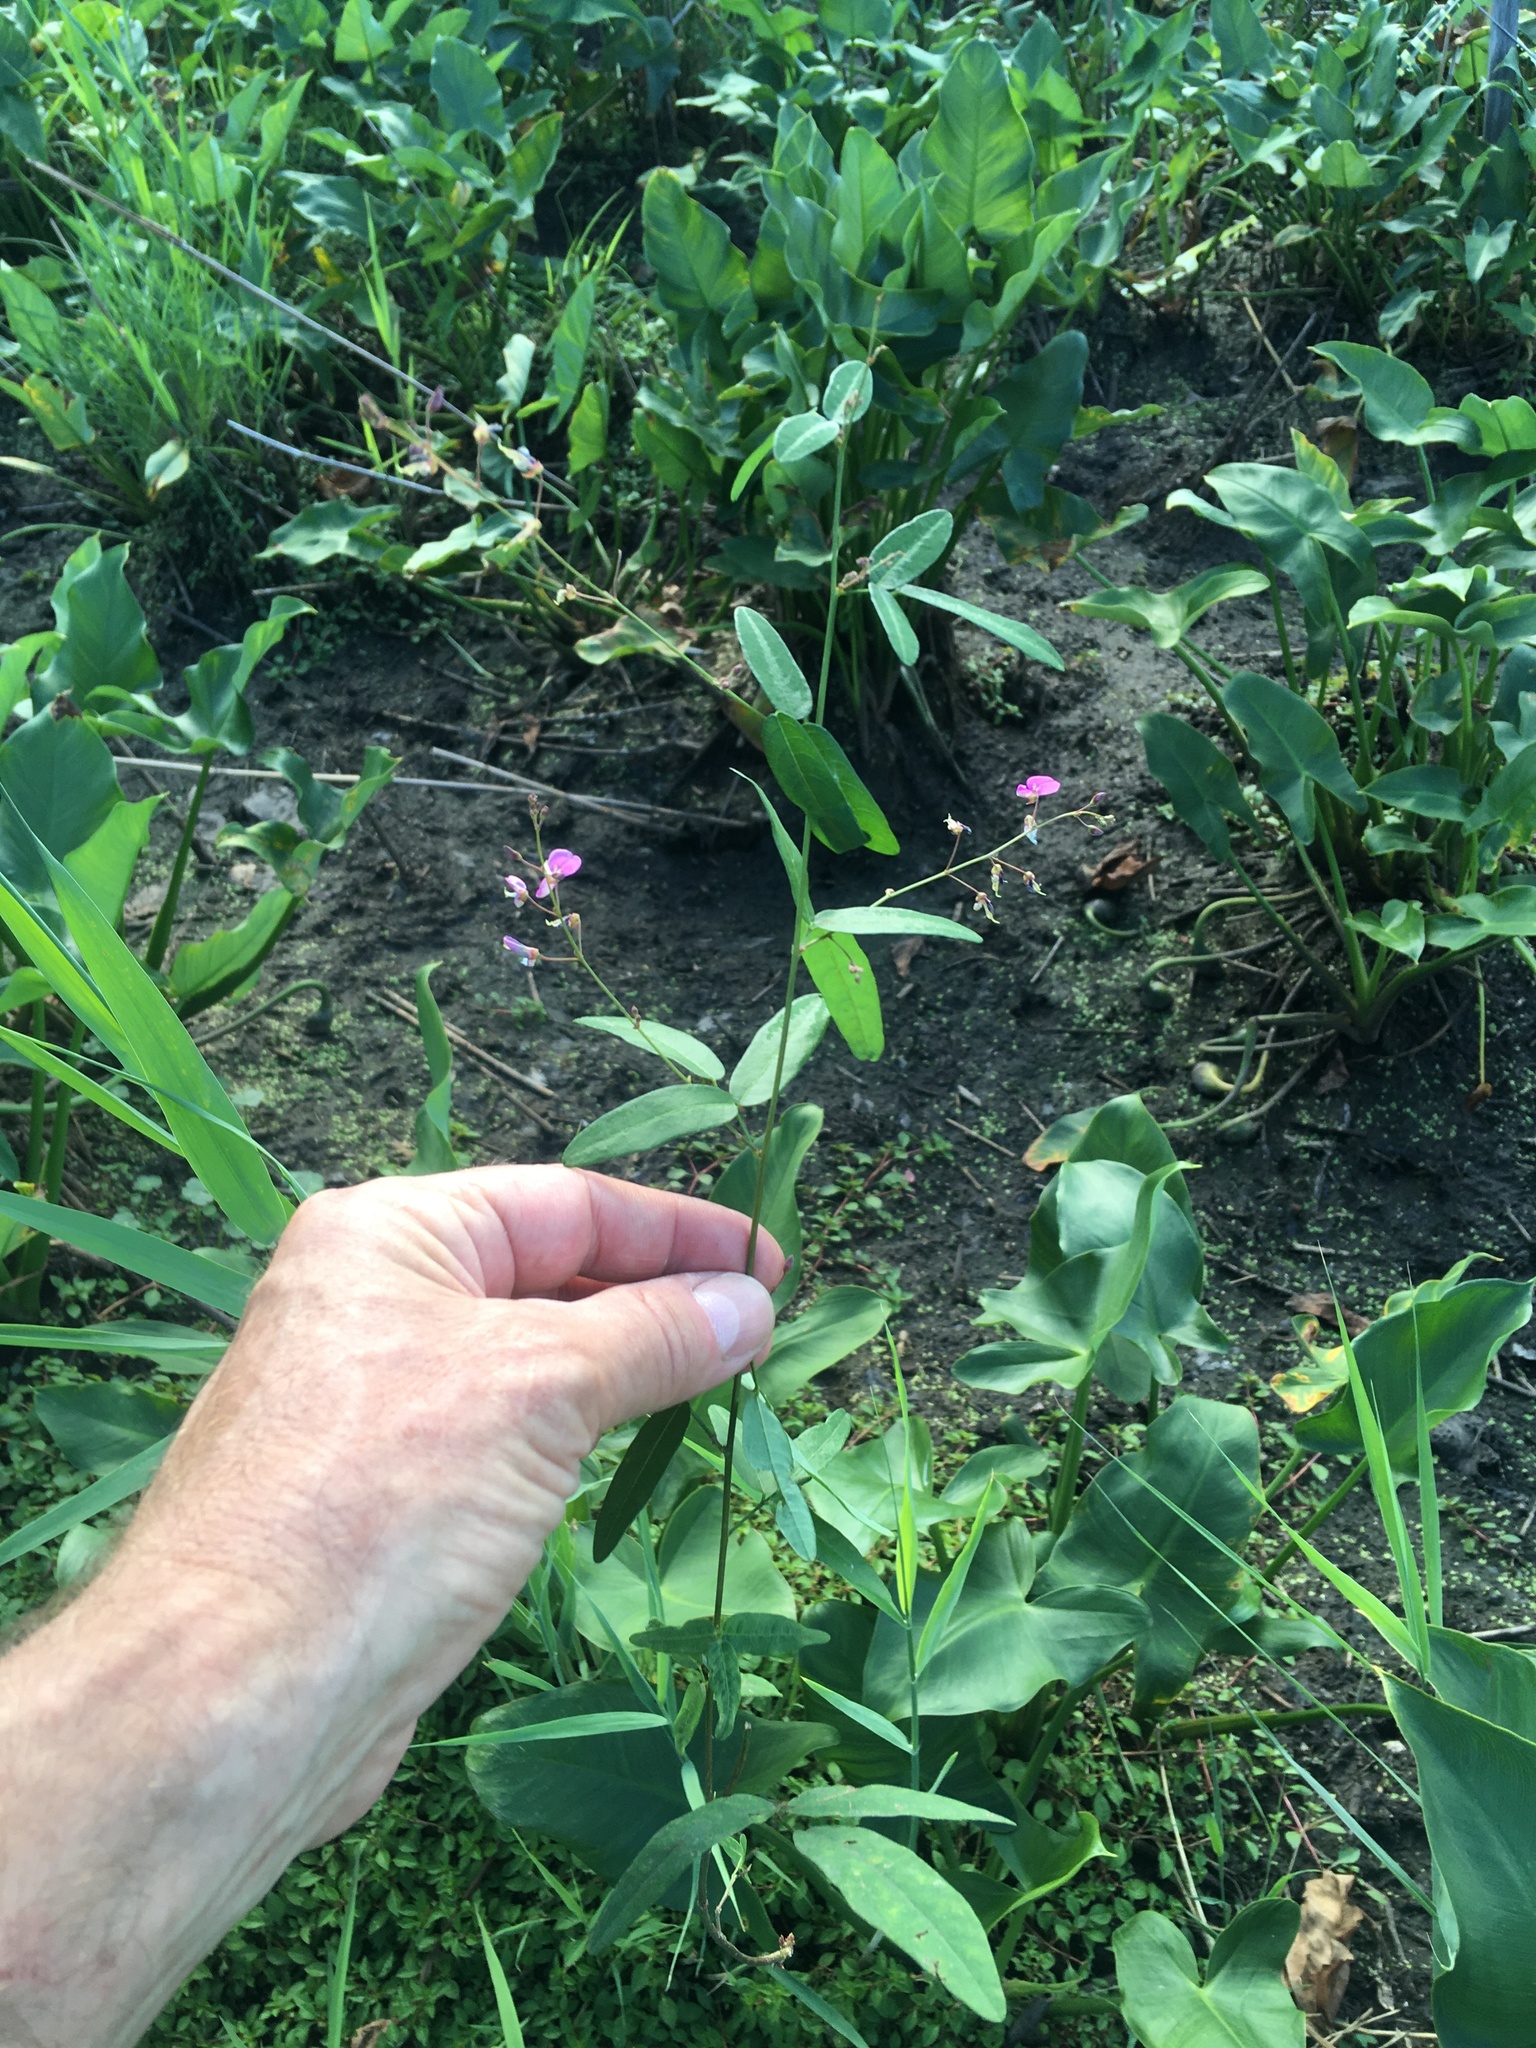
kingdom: Plantae
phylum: Tracheophyta
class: Magnoliopsida
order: Fabales
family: Fabaceae
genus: Desmodium
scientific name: Desmodium paniculatum
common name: Panicled tick-clover
